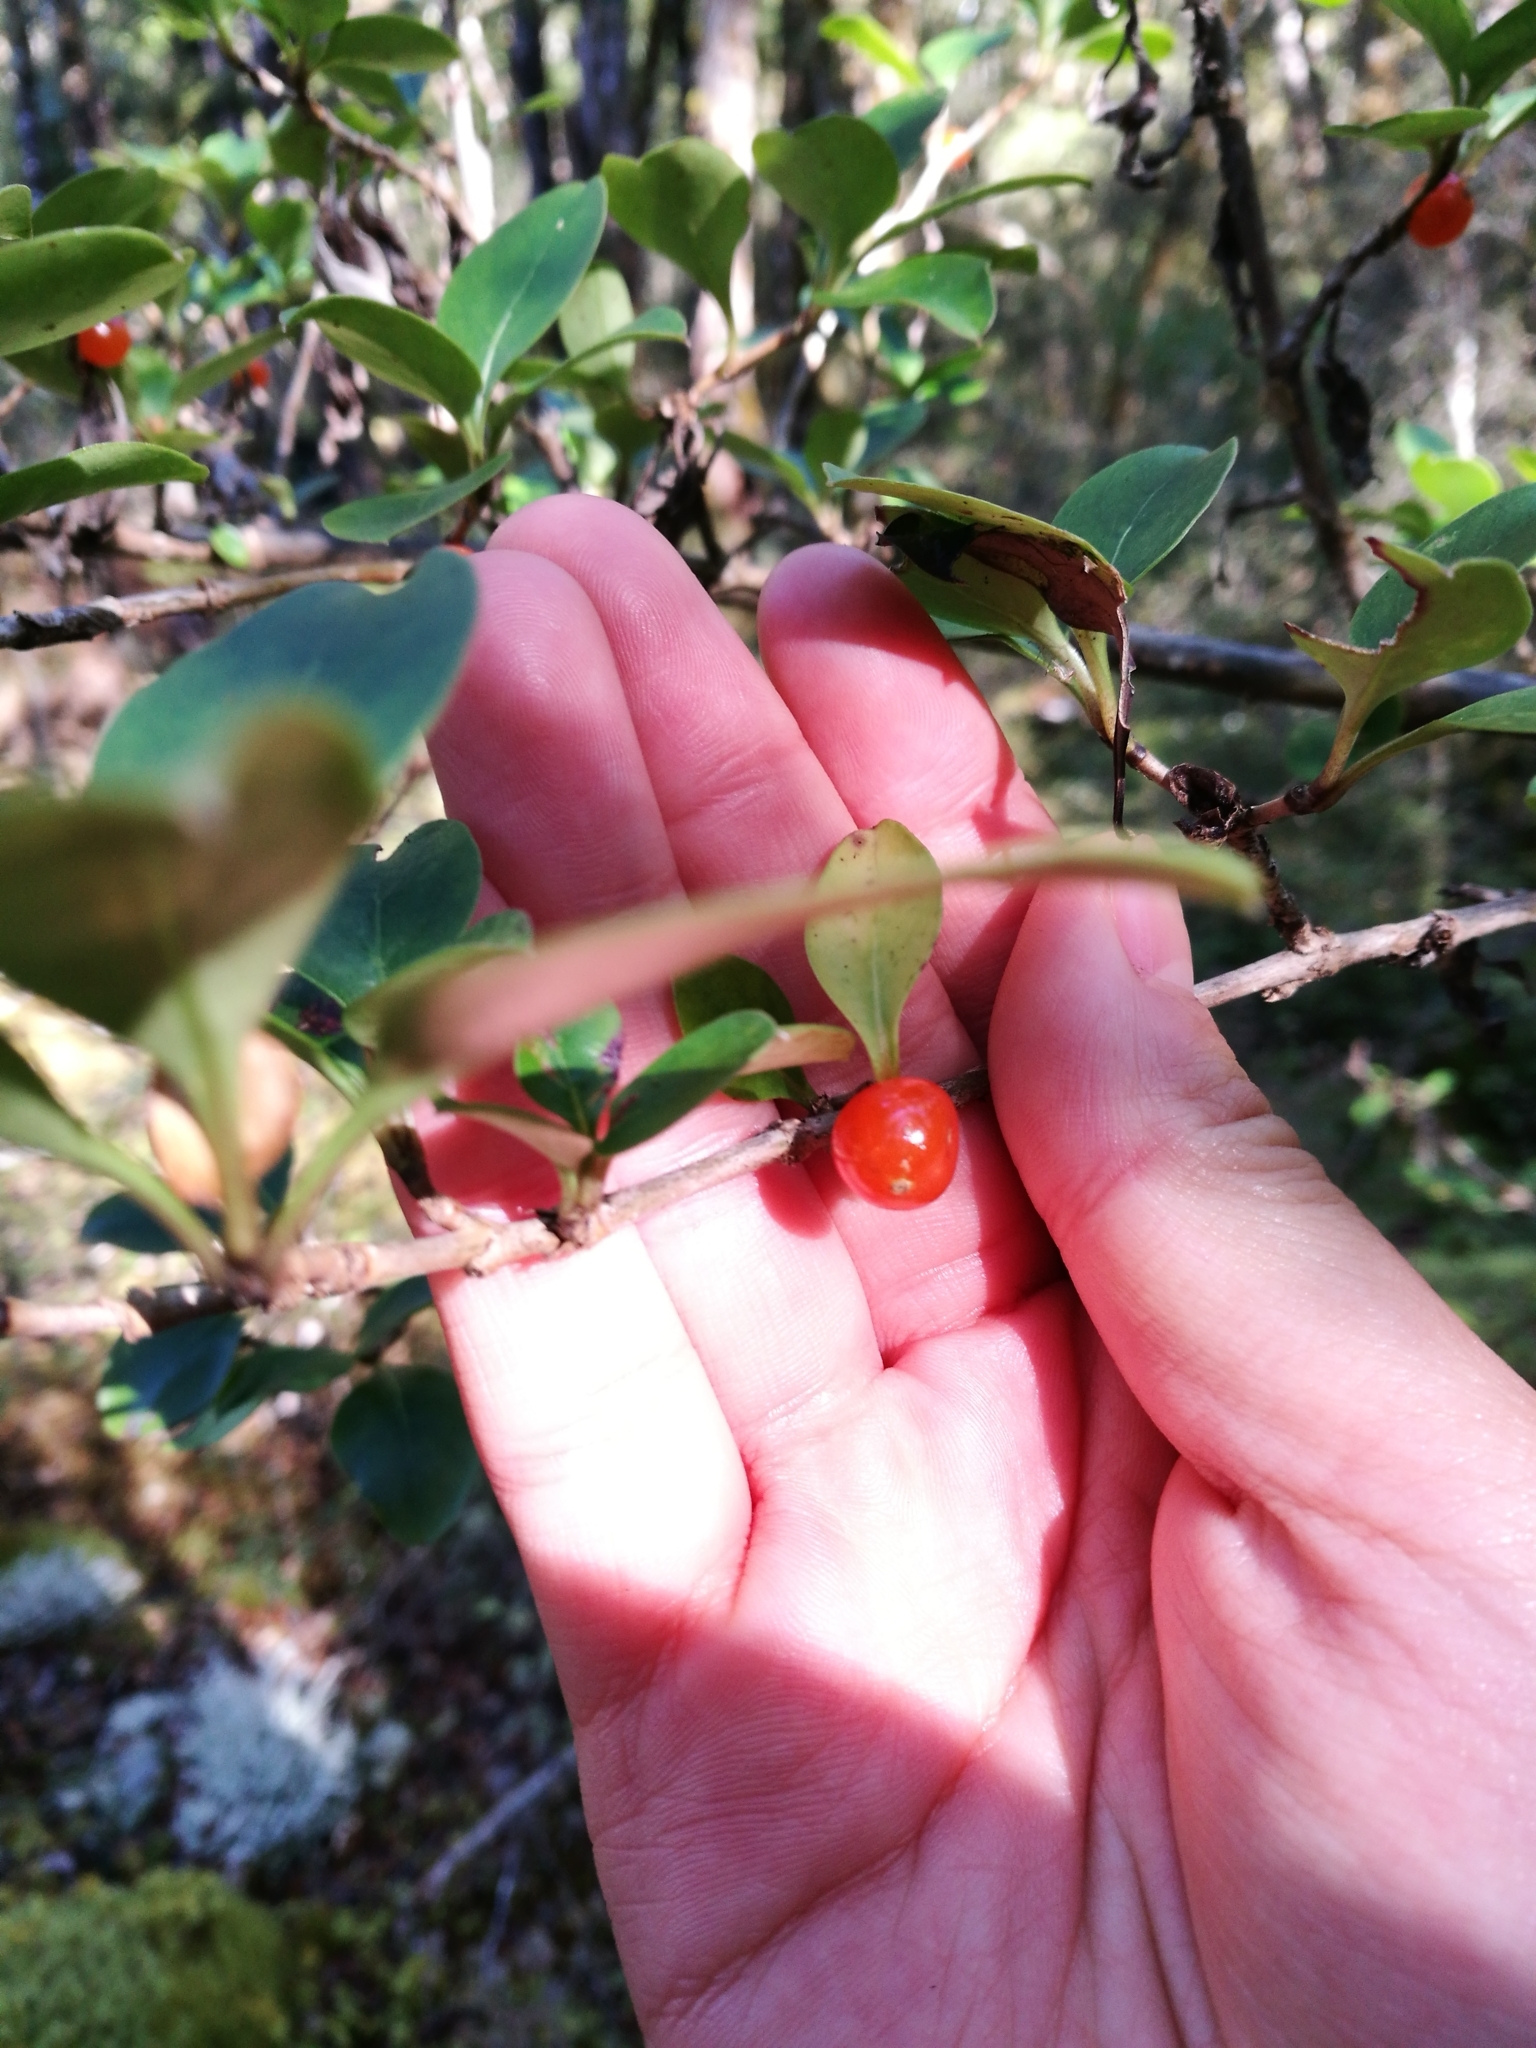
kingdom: Plantae
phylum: Tracheophyta
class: Magnoliopsida
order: Gentianales
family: Rubiaceae
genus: Coprosma
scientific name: Coprosma foetidissima
